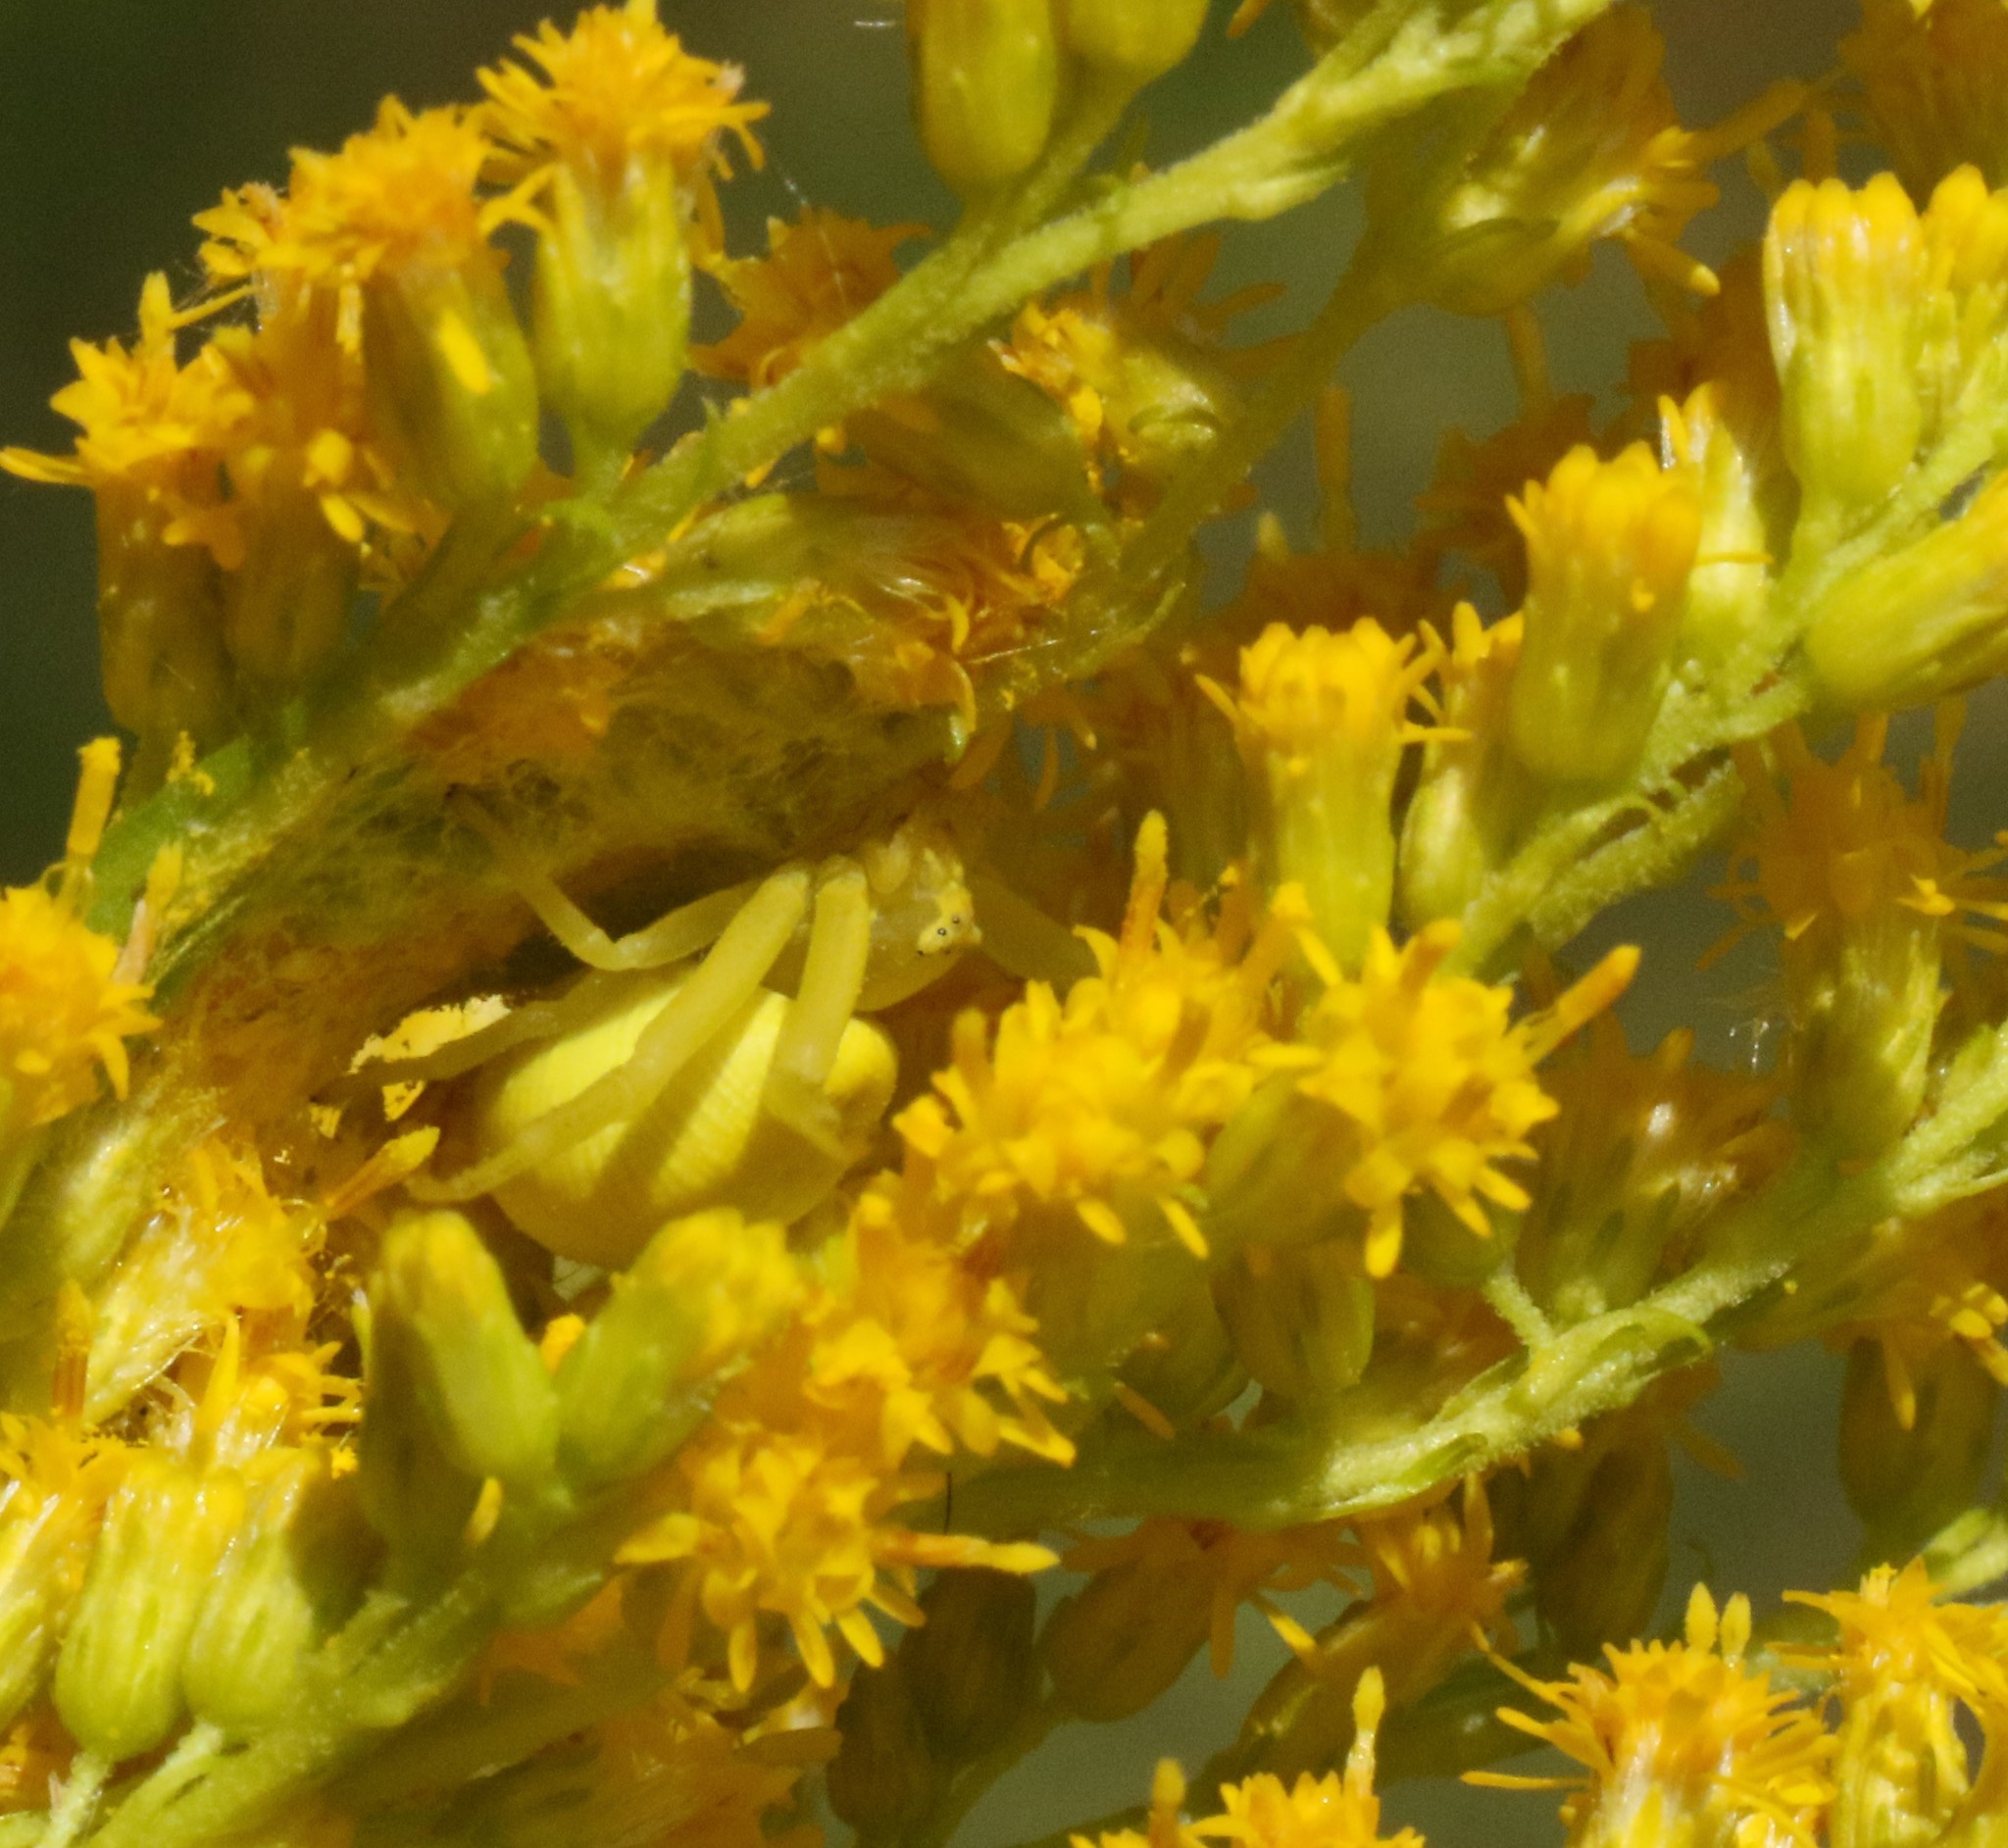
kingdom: Animalia
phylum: Arthropoda
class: Arachnida
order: Araneae
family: Thomisidae
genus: Misumena
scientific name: Misumena vatia
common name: Goldenrod crab spider
